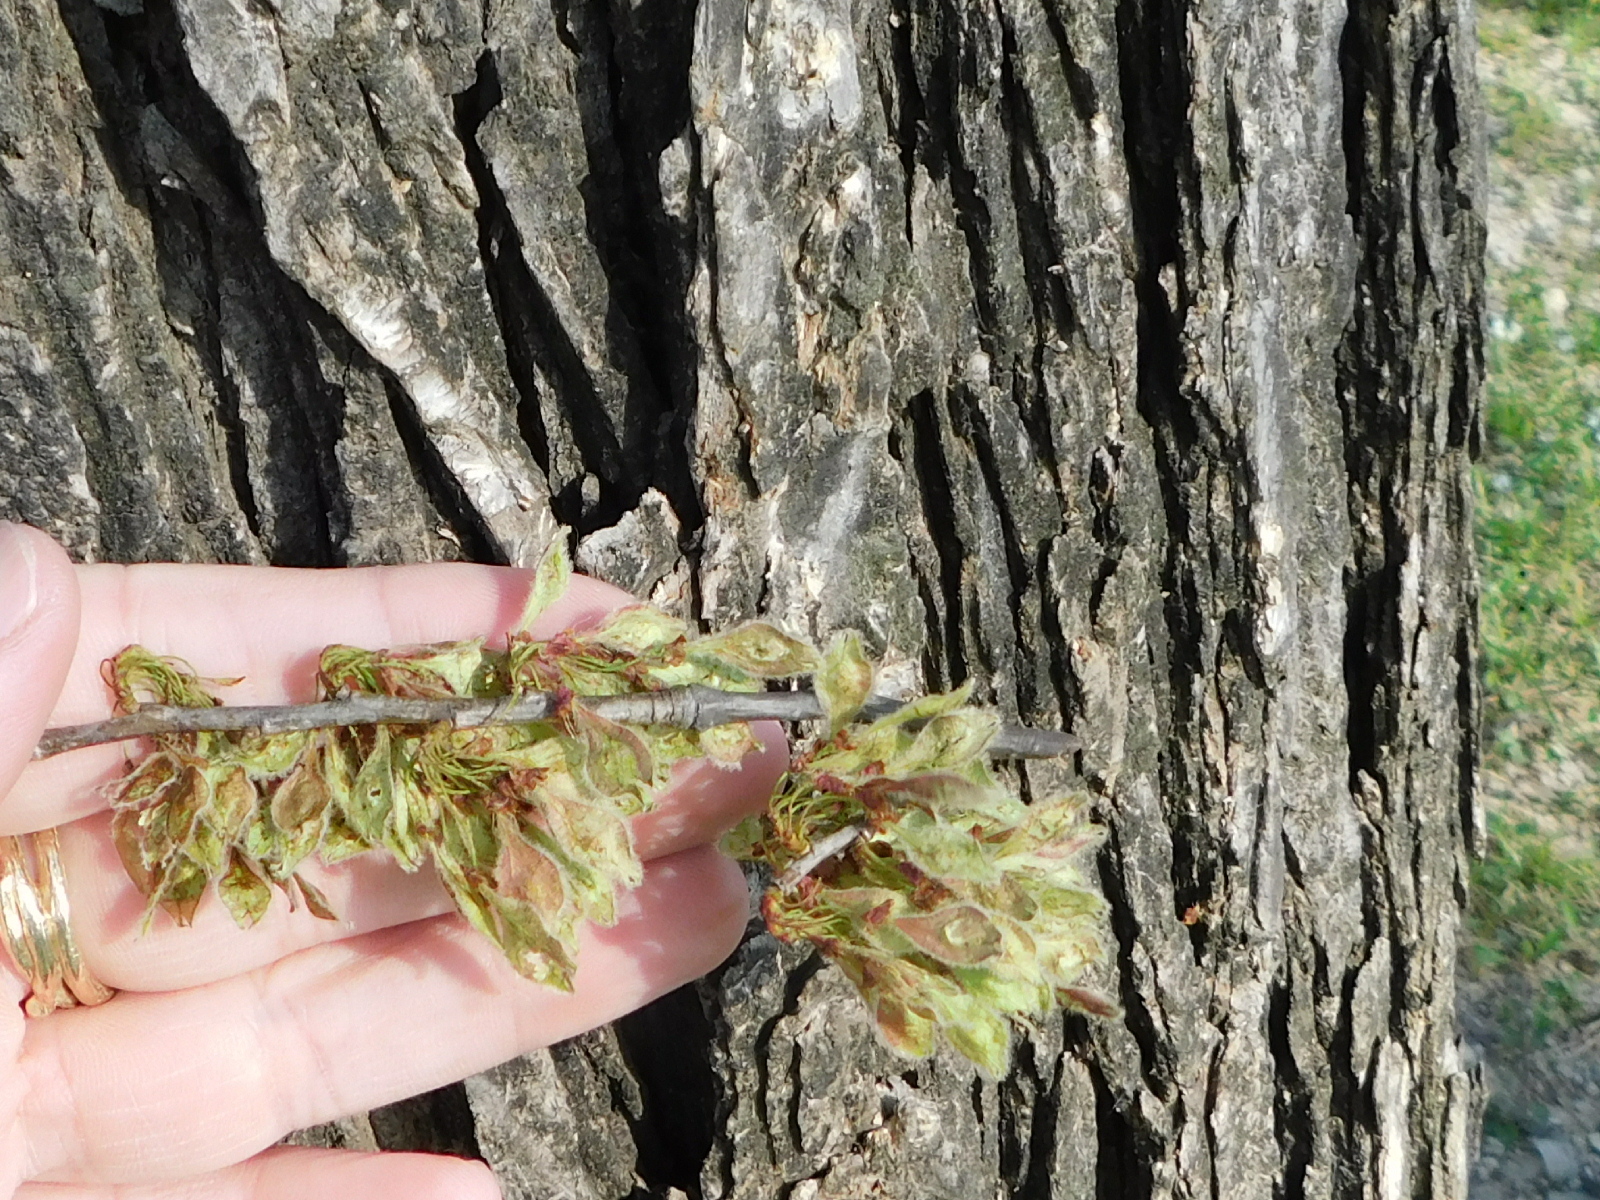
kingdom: Plantae
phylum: Tracheophyta
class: Magnoliopsida
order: Rosales
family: Ulmaceae
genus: Ulmus
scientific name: Ulmus americana
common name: American elm
